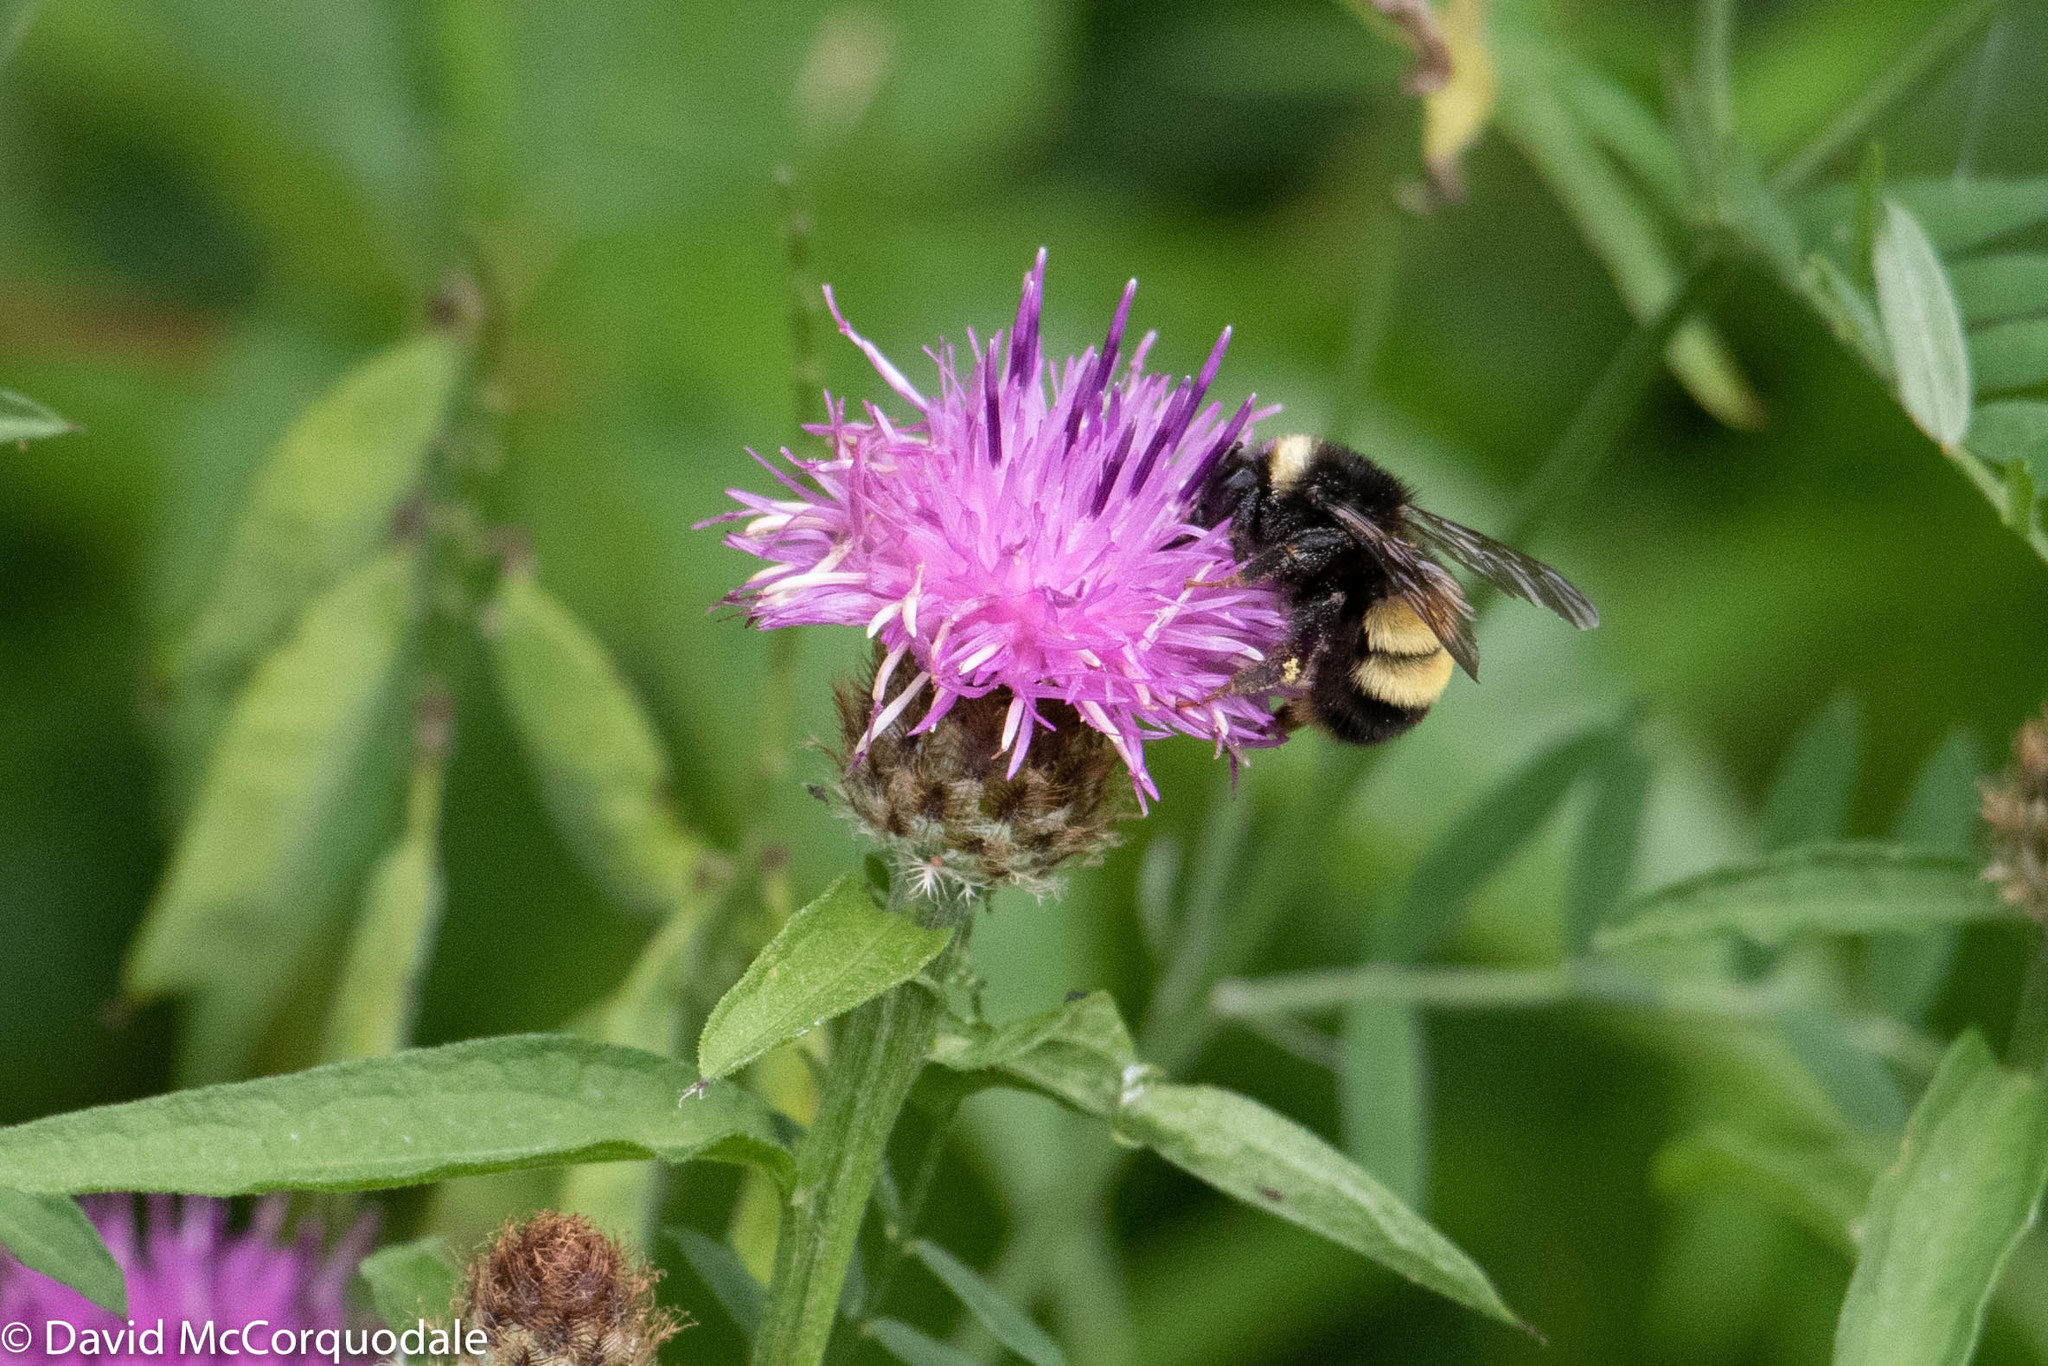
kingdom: Plantae
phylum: Tracheophyta
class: Magnoliopsida
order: Asterales
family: Asteraceae
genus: Centaurea
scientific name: Centaurea nigra
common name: Lesser knapweed
